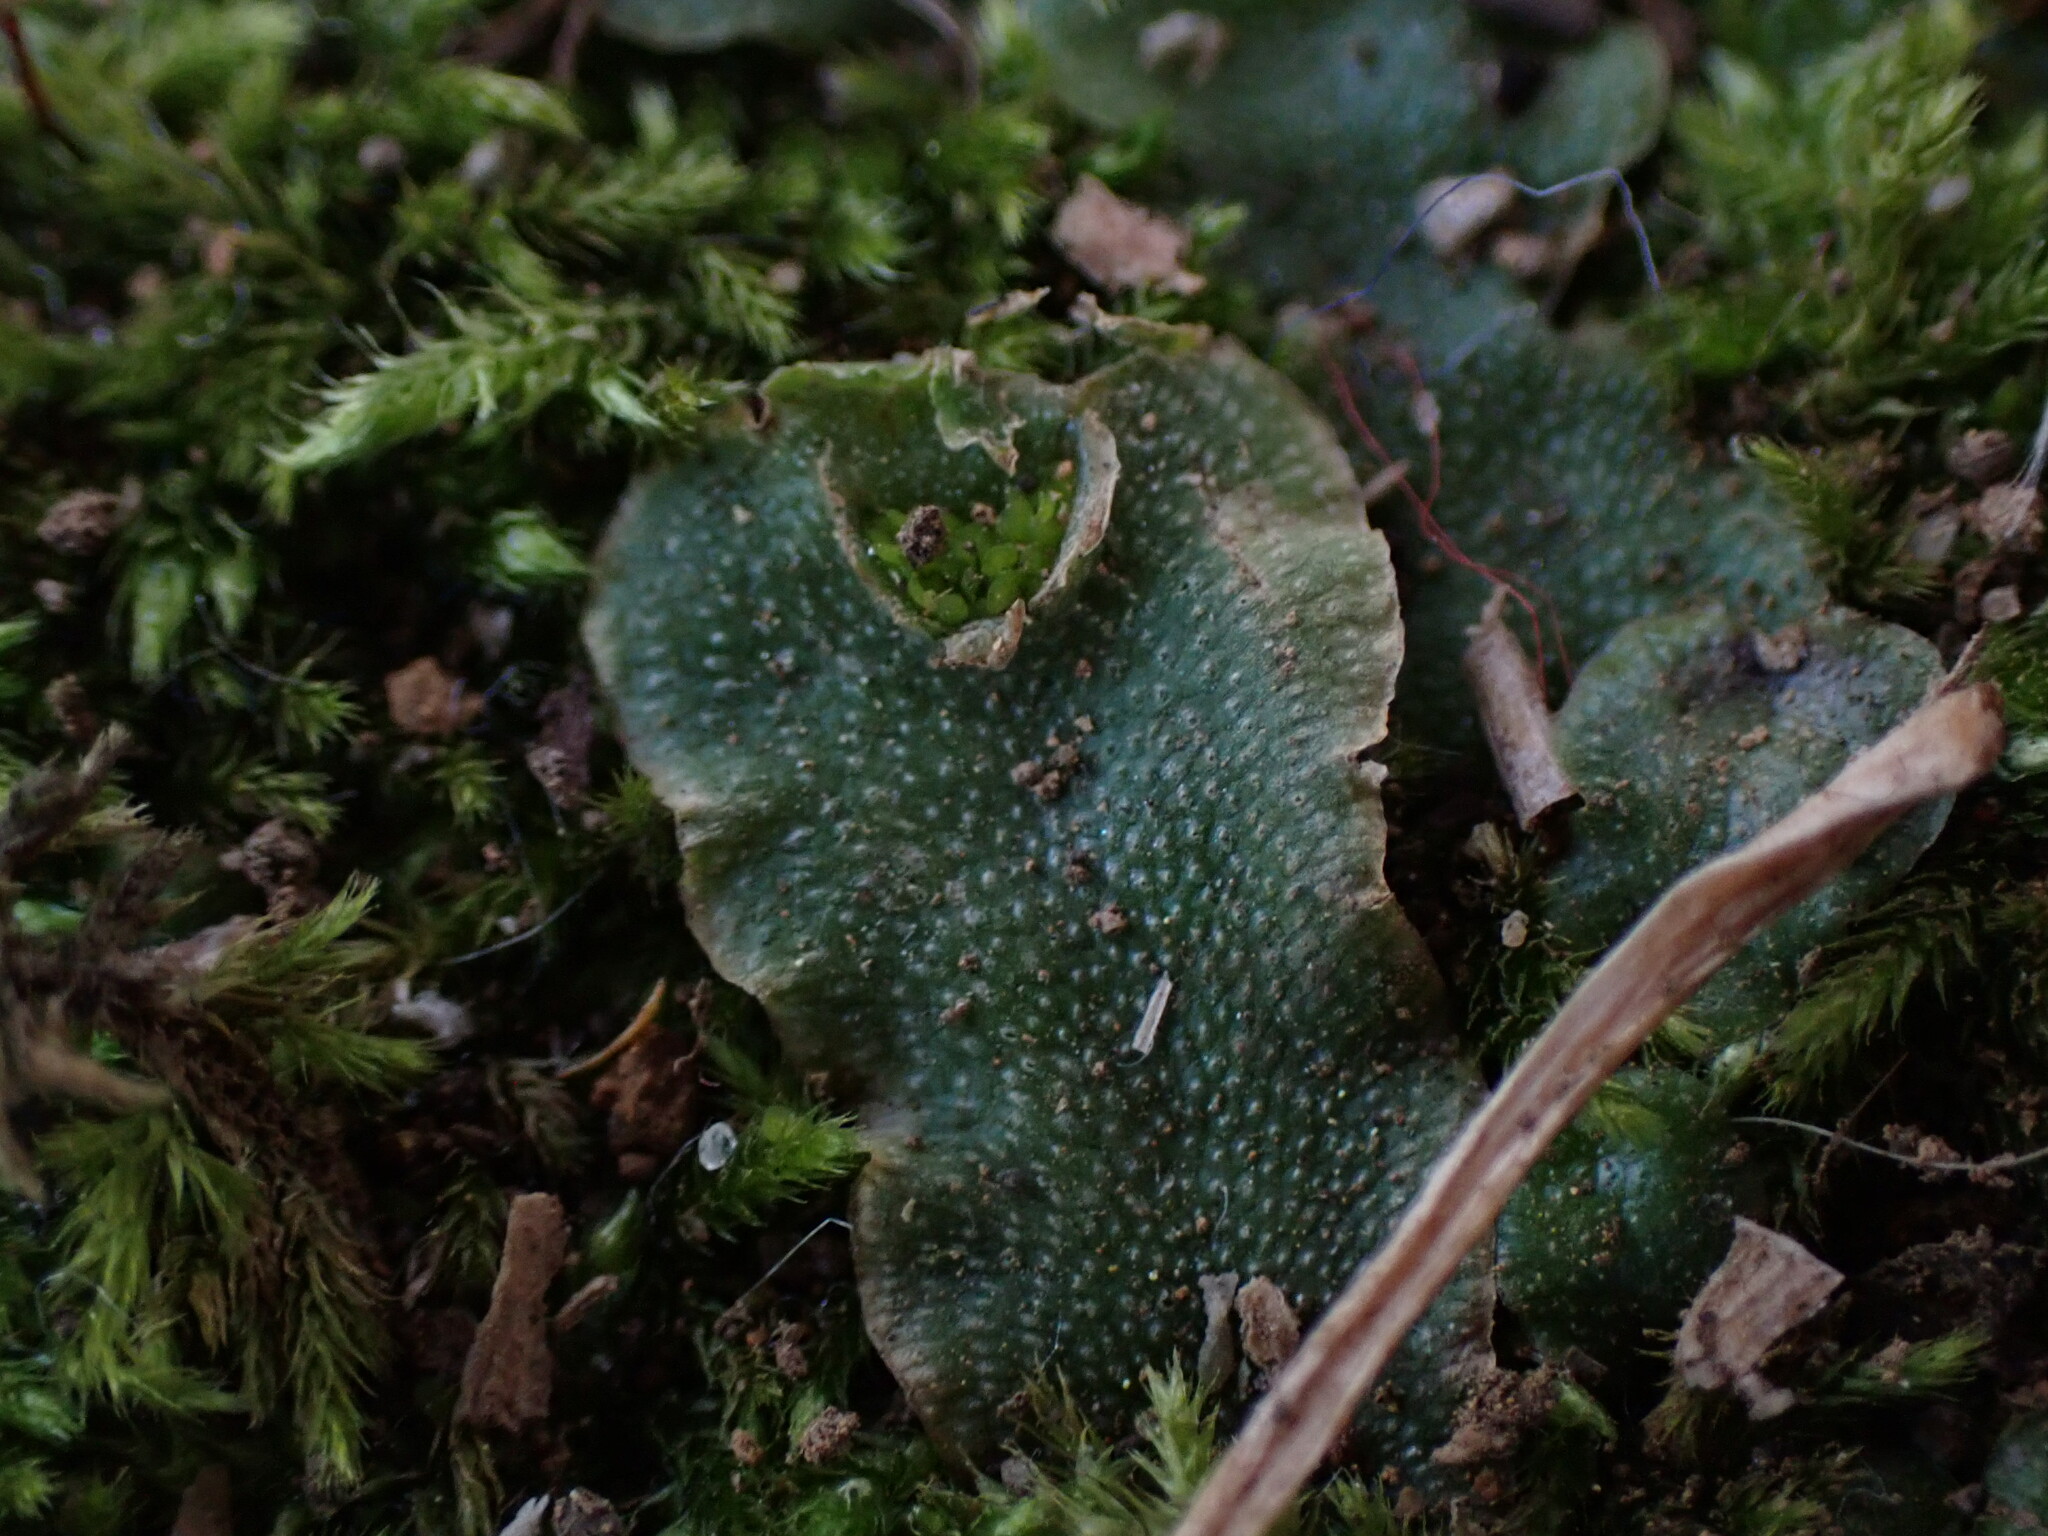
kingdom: Plantae
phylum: Marchantiophyta
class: Marchantiopsida
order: Lunulariales
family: Lunulariaceae
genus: Lunularia
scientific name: Lunularia cruciata
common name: Crescent-cup liverwort
